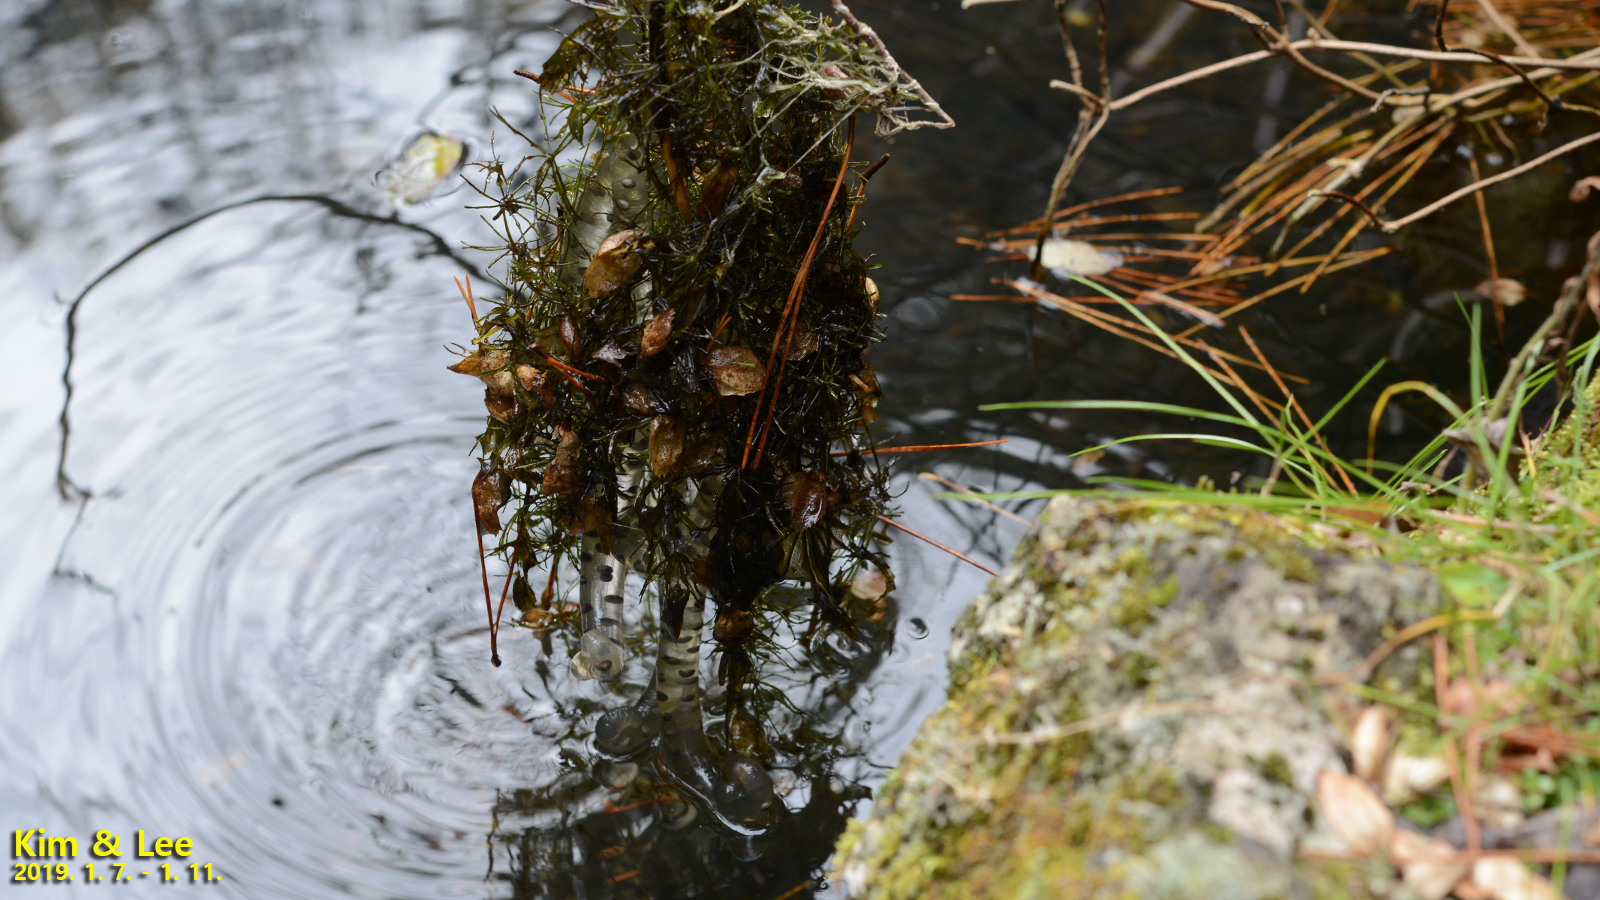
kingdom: Animalia
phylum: Chordata
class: Amphibia
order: Caudata
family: Hynobiidae
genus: Hynobius
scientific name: Hynobius quelpaertensis
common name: Cheju salamander
